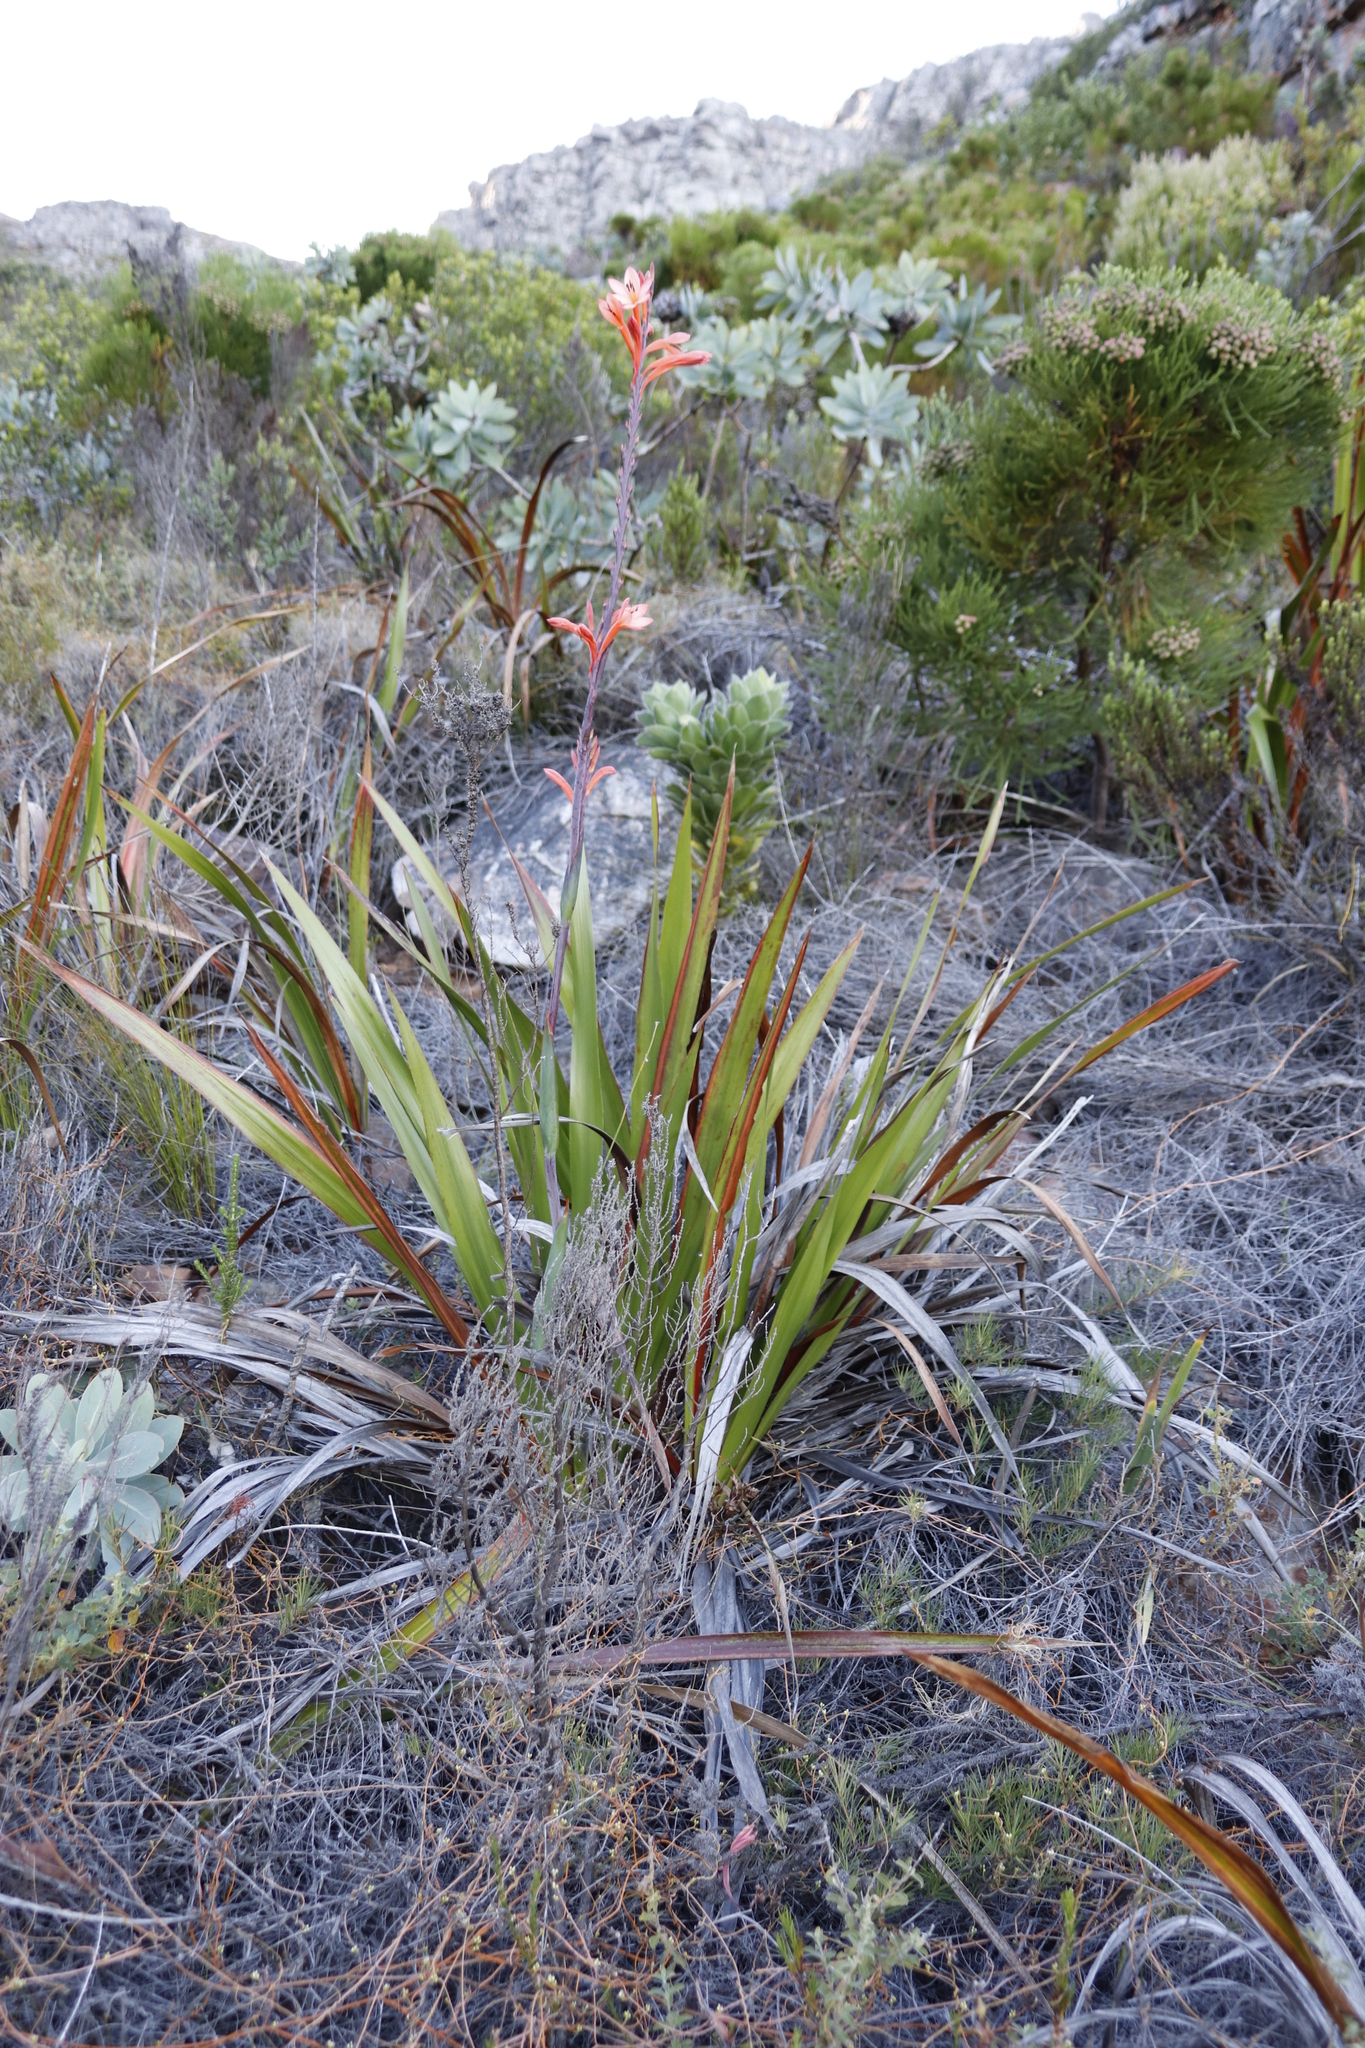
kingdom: Plantae
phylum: Tracheophyta
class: Liliopsida
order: Asparagales
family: Iridaceae
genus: Watsonia
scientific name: Watsonia tabularis
